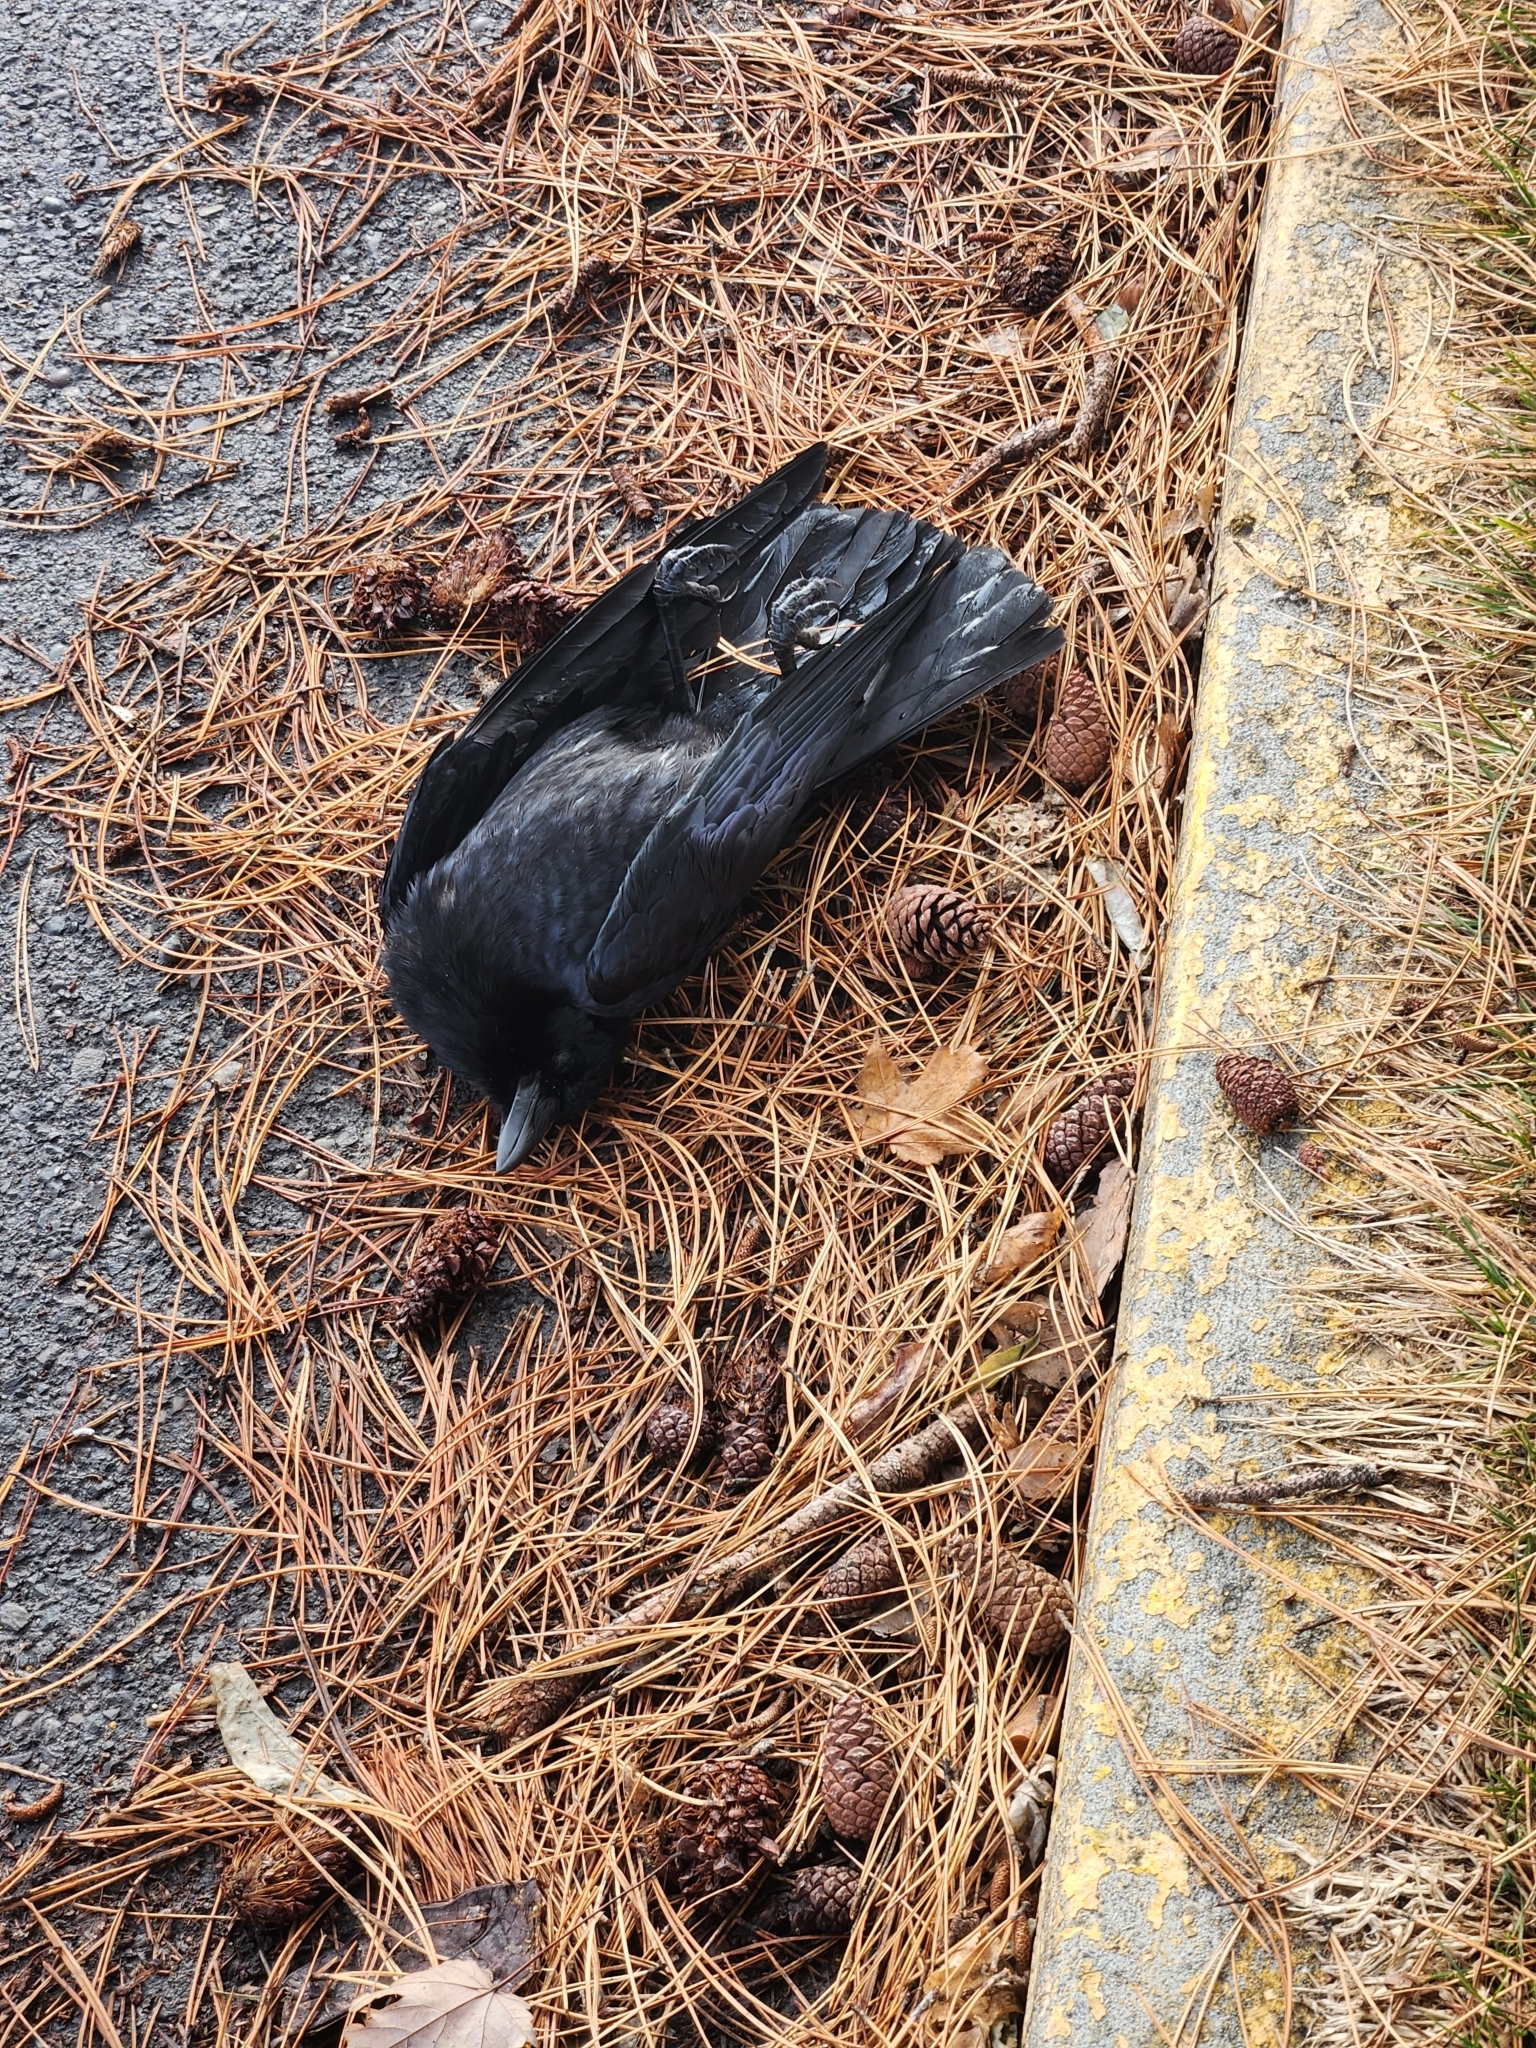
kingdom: Animalia
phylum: Chordata
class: Aves
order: Passeriformes
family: Corvidae
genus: Corvus
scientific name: Corvus brachyrhynchos
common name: American crow
